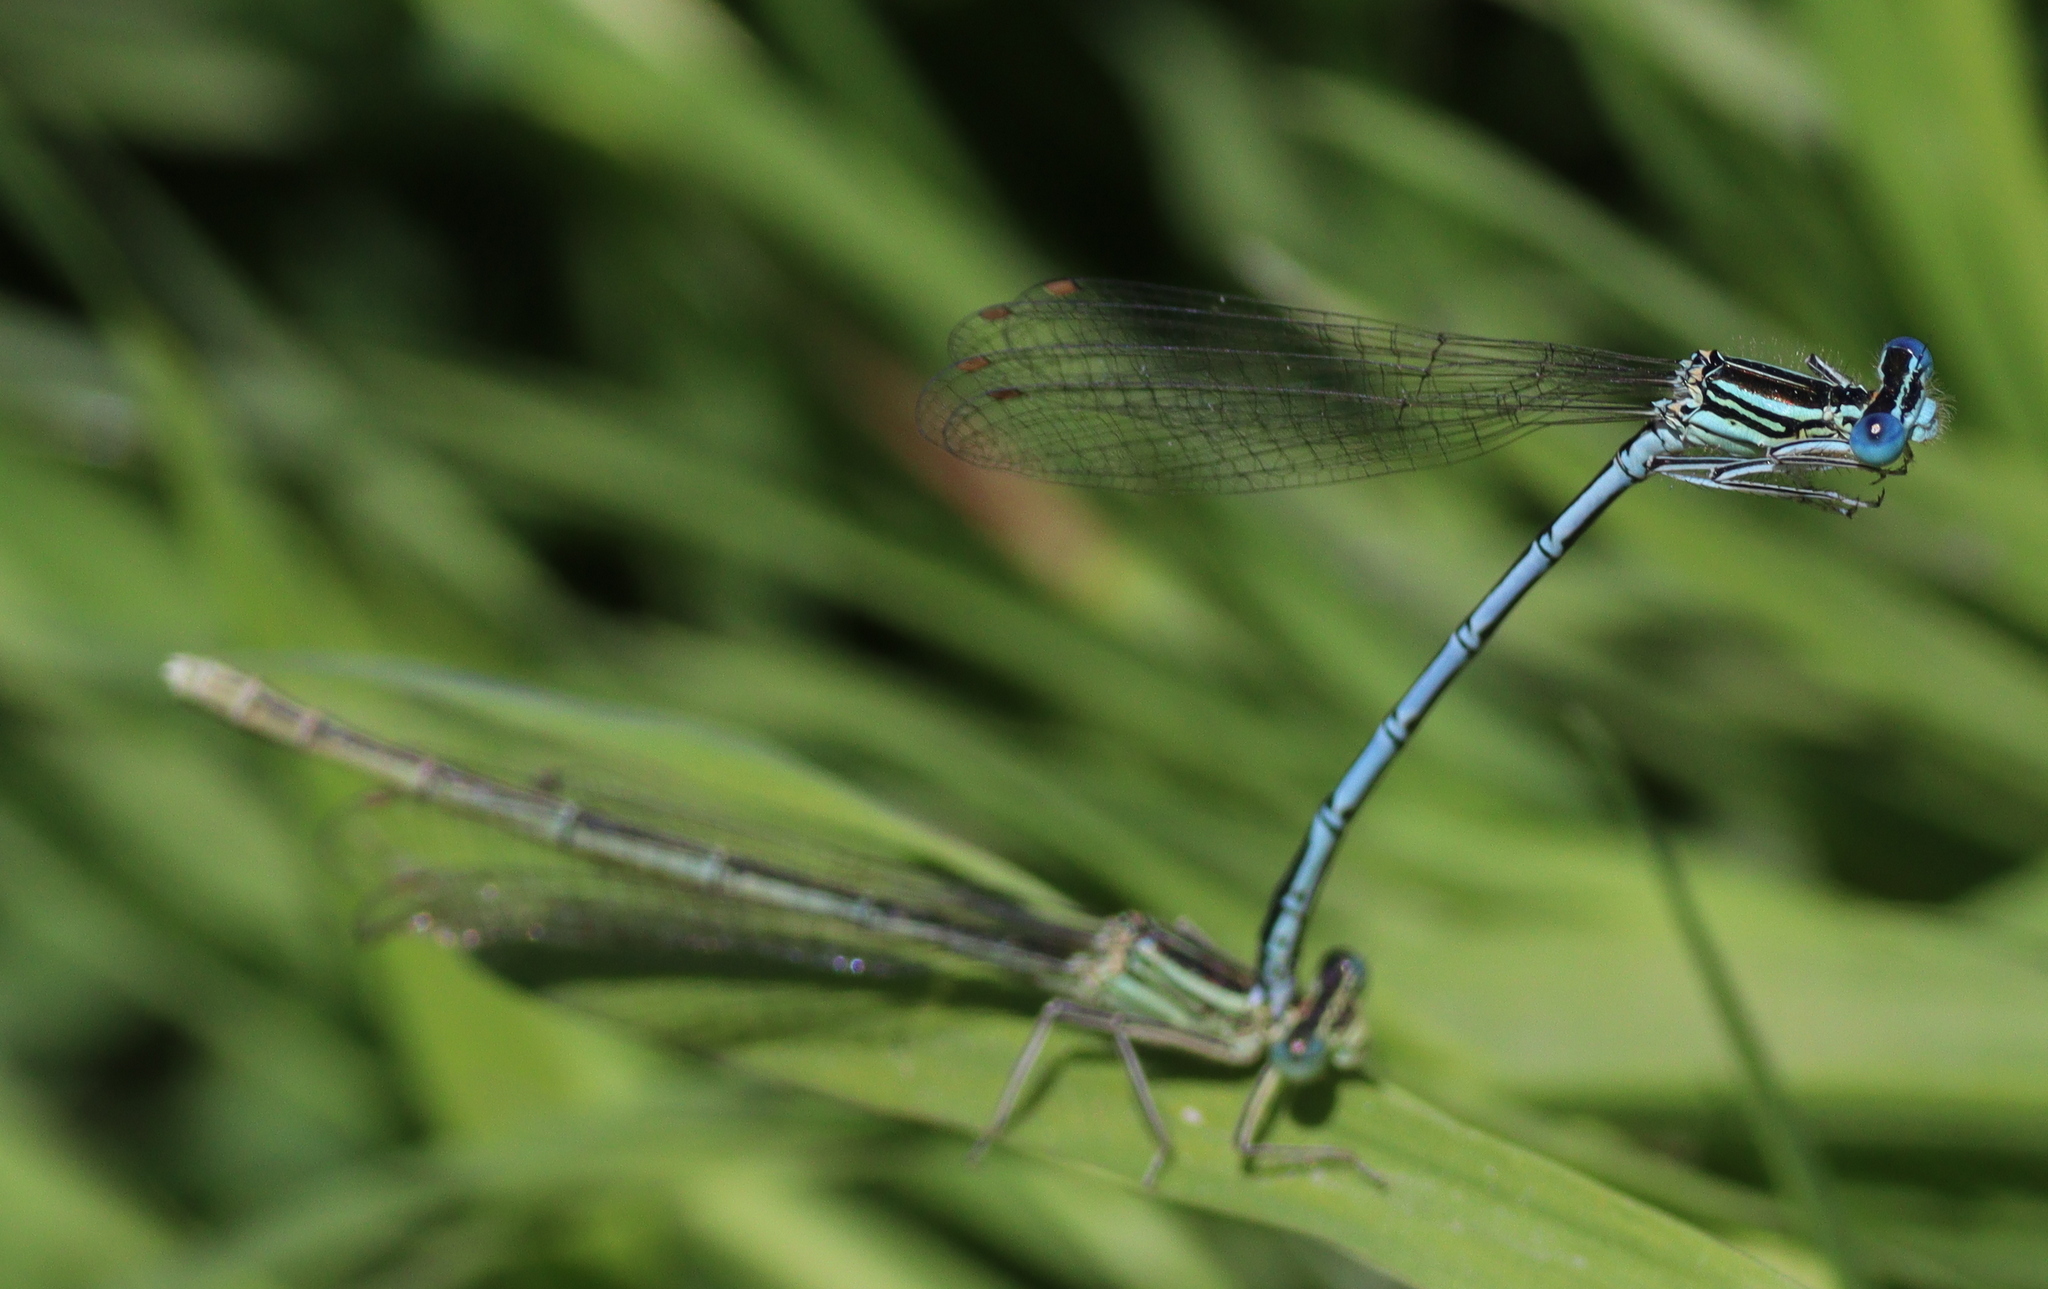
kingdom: Animalia
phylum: Arthropoda
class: Insecta
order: Odonata
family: Platycnemididae
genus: Platycnemis
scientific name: Platycnemis pennipes
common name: White-legged damselfly
